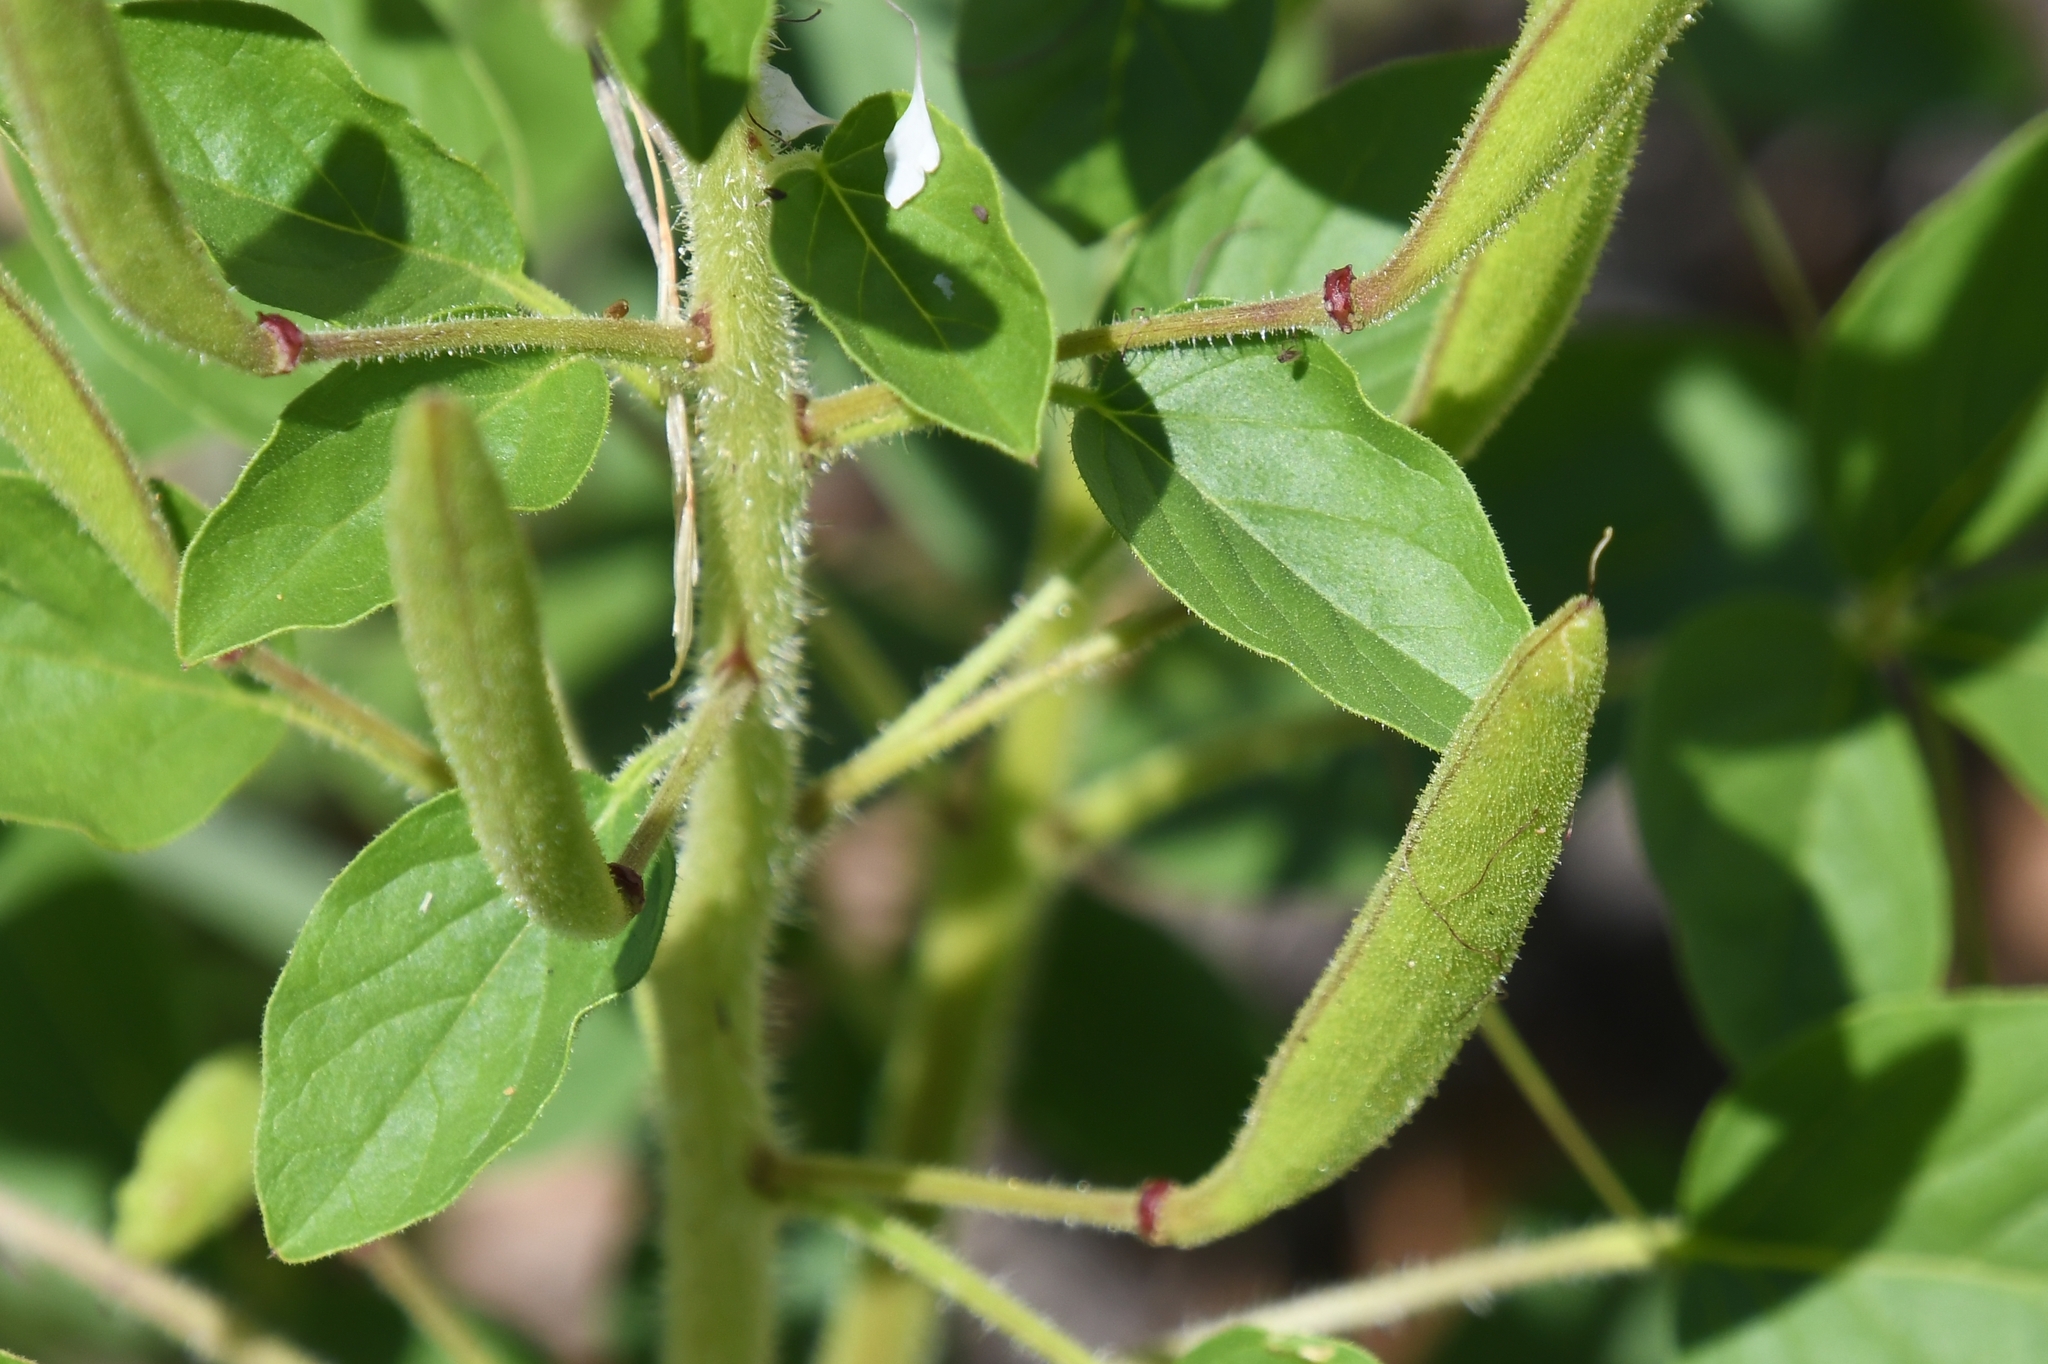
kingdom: Plantae
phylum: Tracheophyta
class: Magnoliopsida
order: Brassicales
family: Cleomaceae
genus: Polanisia
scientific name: Polanisia dodecandra
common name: Clammyweed
